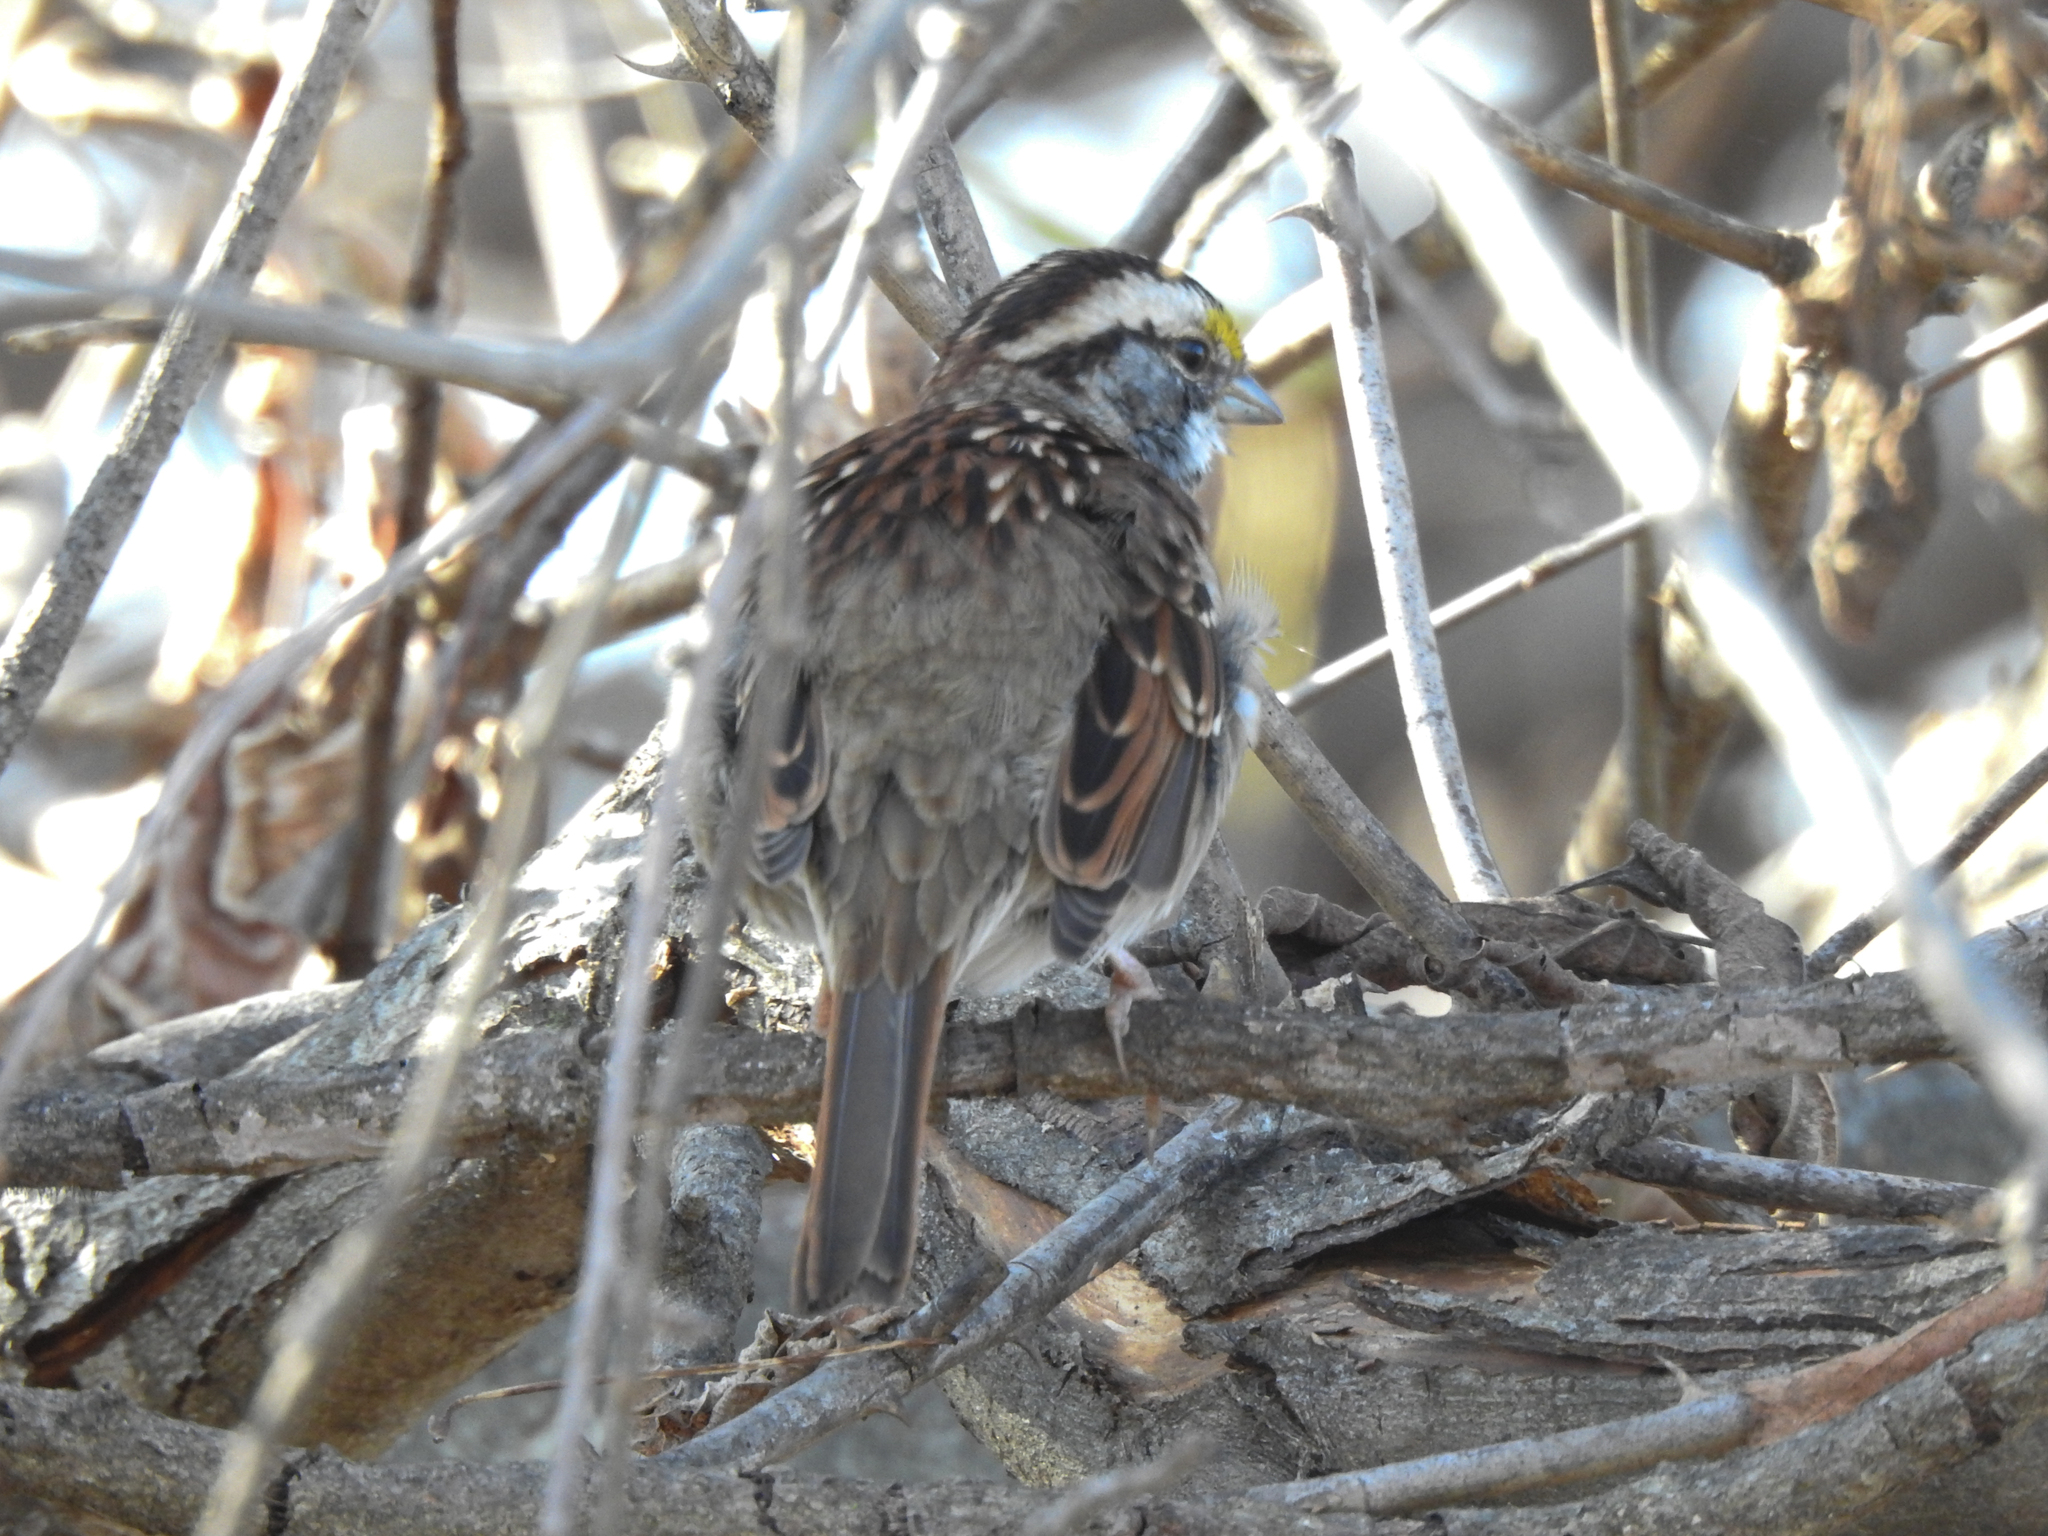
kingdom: Animalia
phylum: Chordata
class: Aves
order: Passeriformes
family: Passerellidae
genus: Zonotrichia
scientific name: Zonotrichia albicollis
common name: White-throated sparrow
